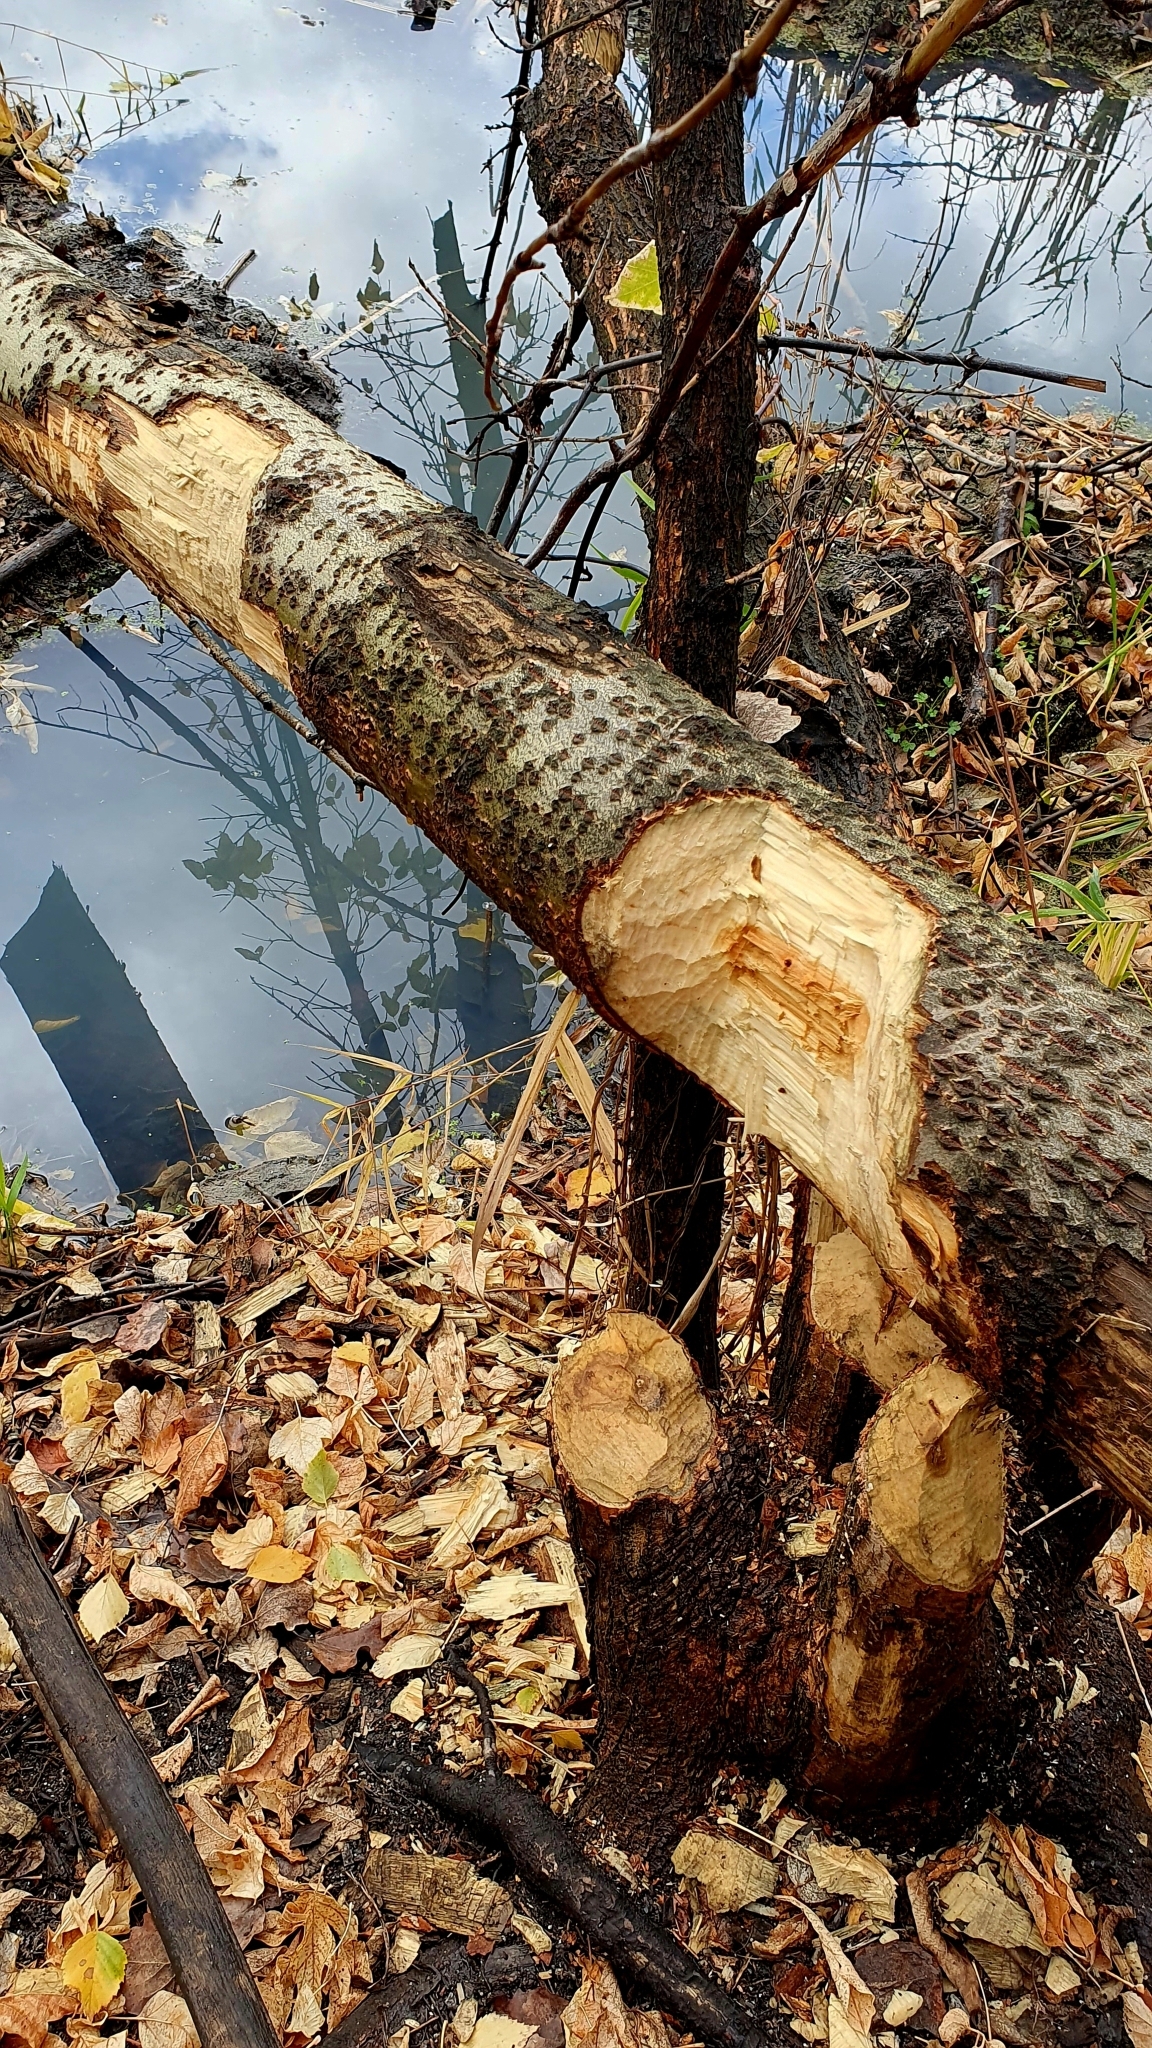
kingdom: Animalia
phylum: Chordata
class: Mammalia
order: Rodentia
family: Castoridae
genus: Castor
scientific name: Castor fiber
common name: Eurasian beaver
